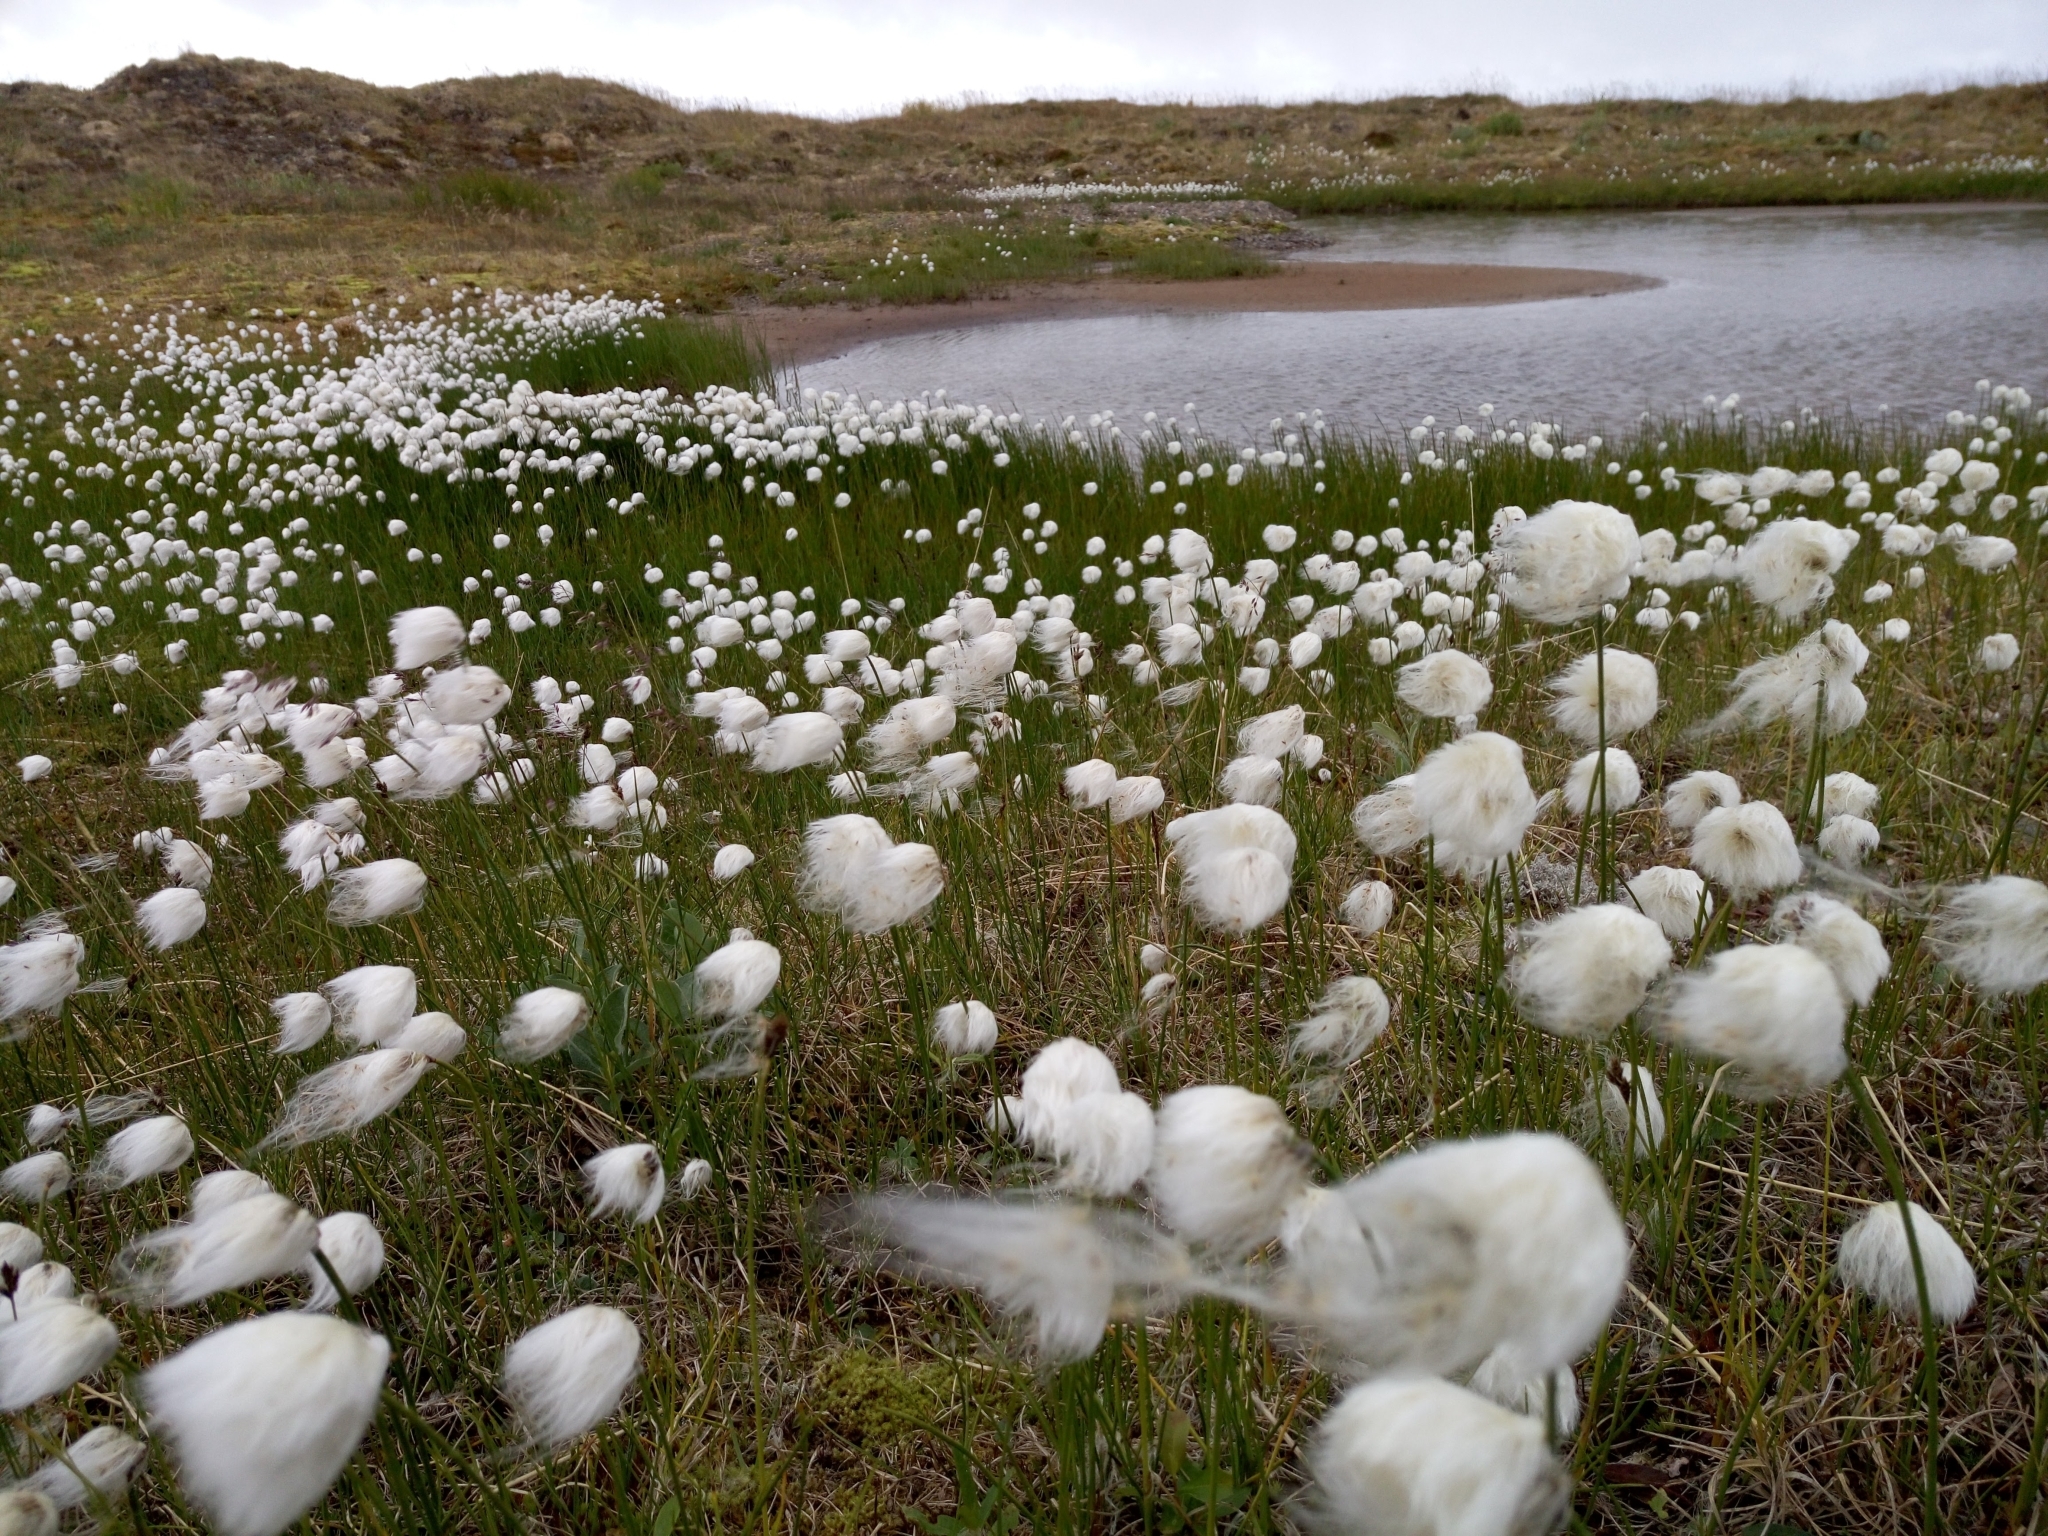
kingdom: Plantae
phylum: Tracheophyta
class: Liliopsida
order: Poales
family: Cyperaceae
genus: Eriophorum
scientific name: Eriophorum scheuchzeri
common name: Scheuchzer's cottongrass
